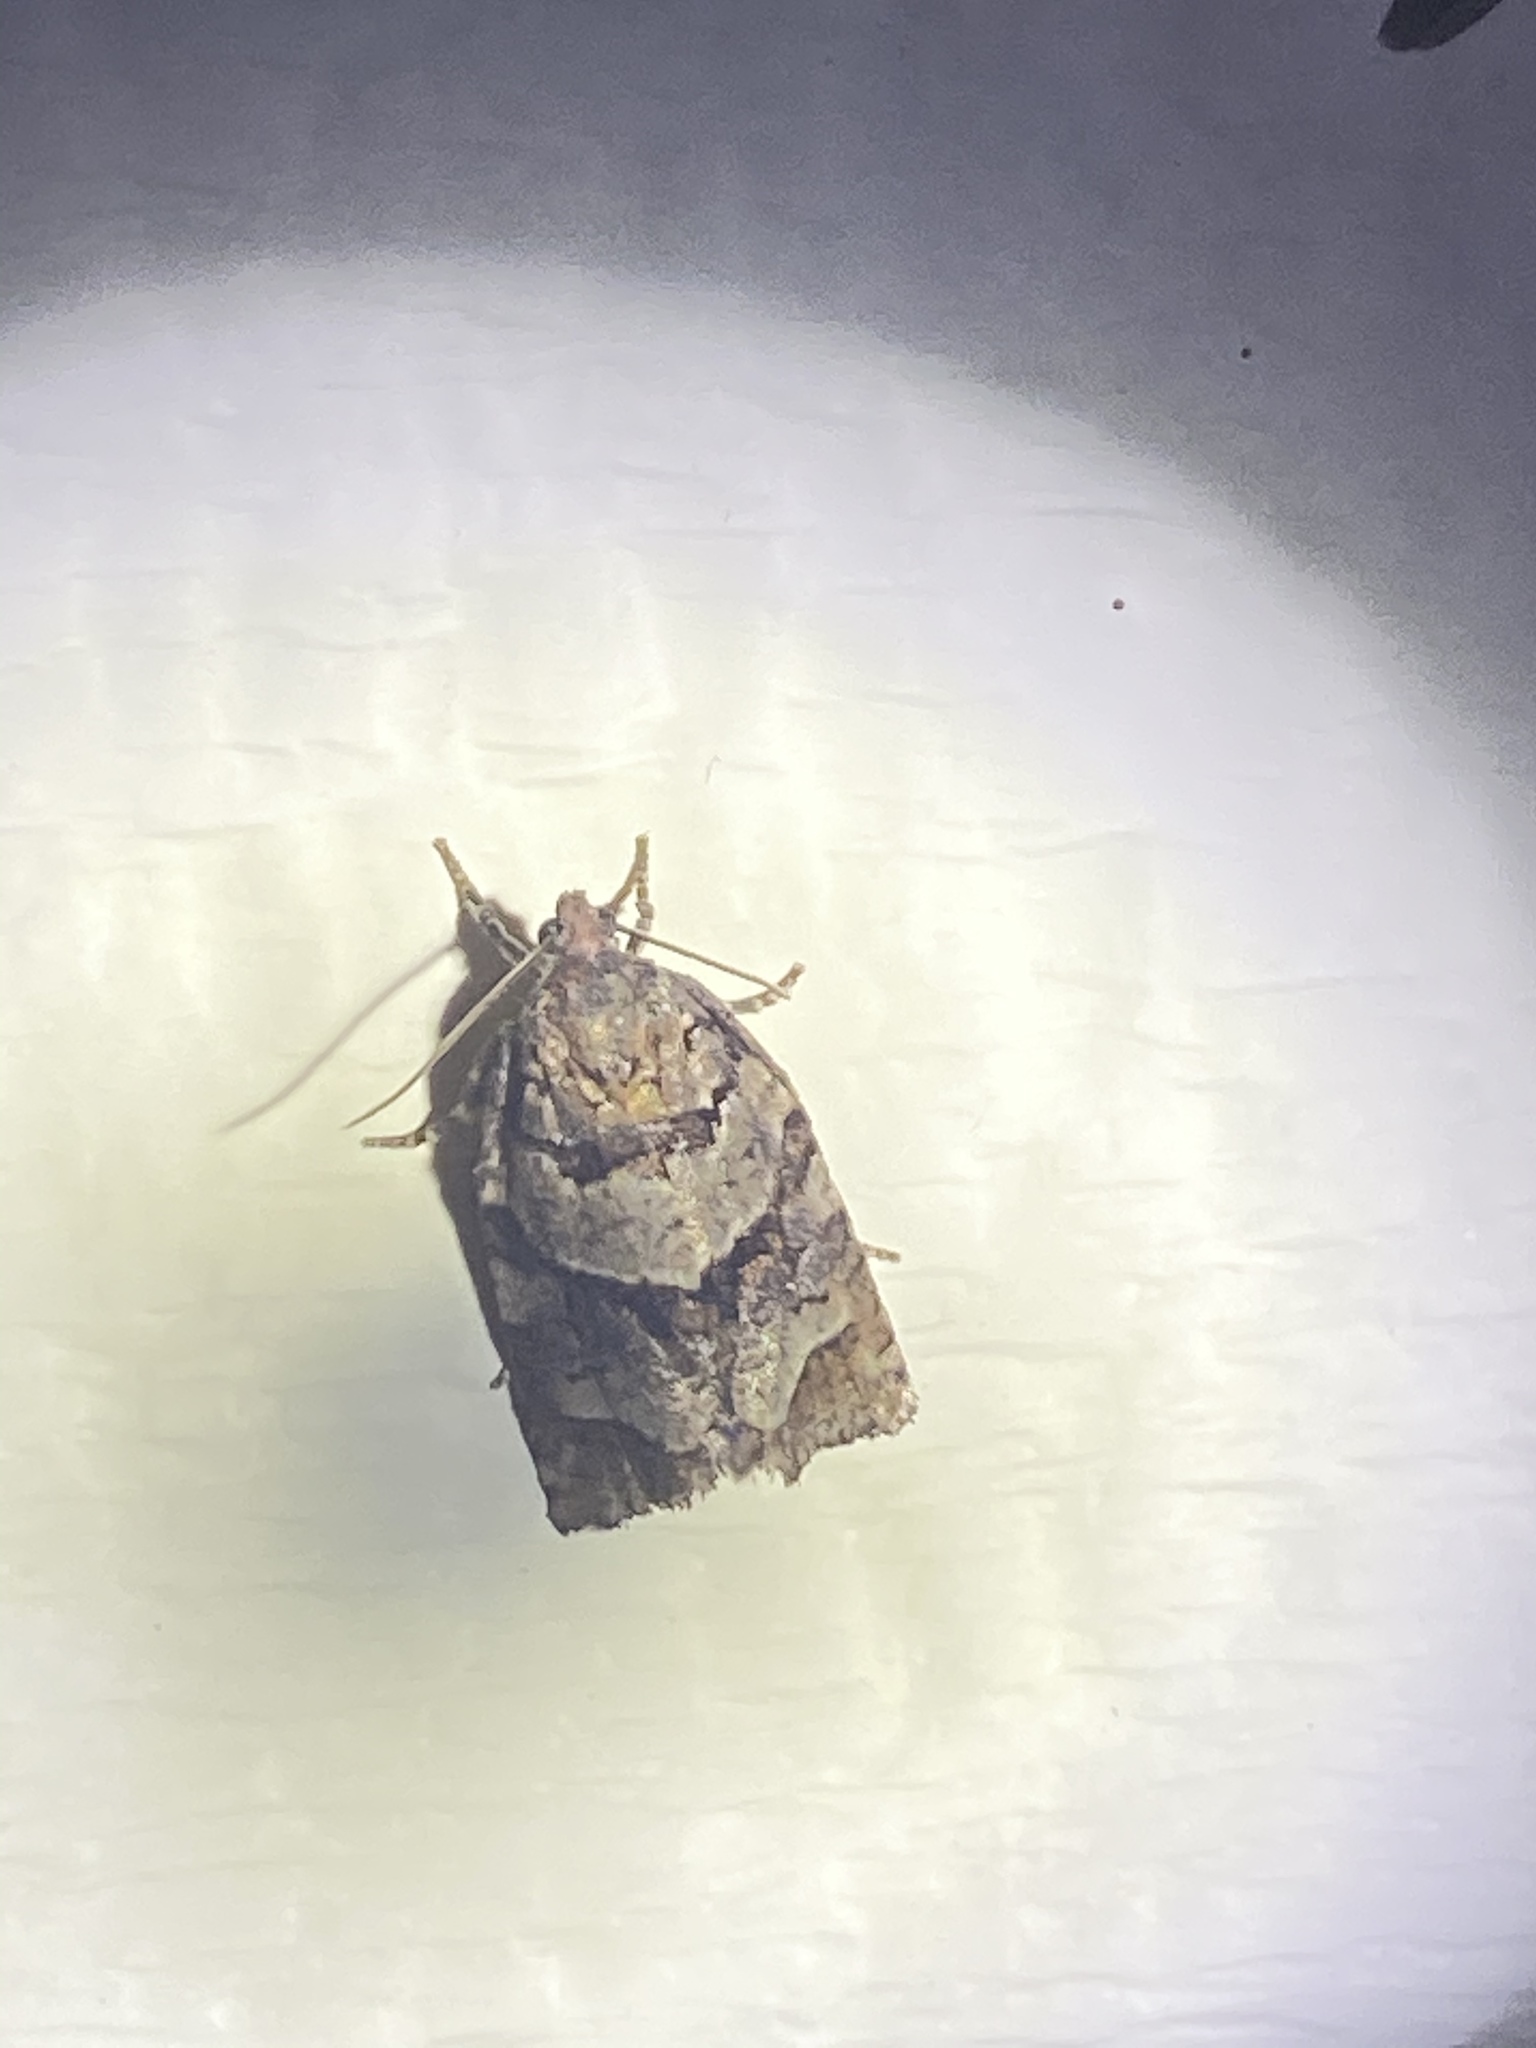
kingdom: Animalia
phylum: Arthropoda
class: Insecta
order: Lepidoptera
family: Tortricidae
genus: Archips
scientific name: Archips alberta
